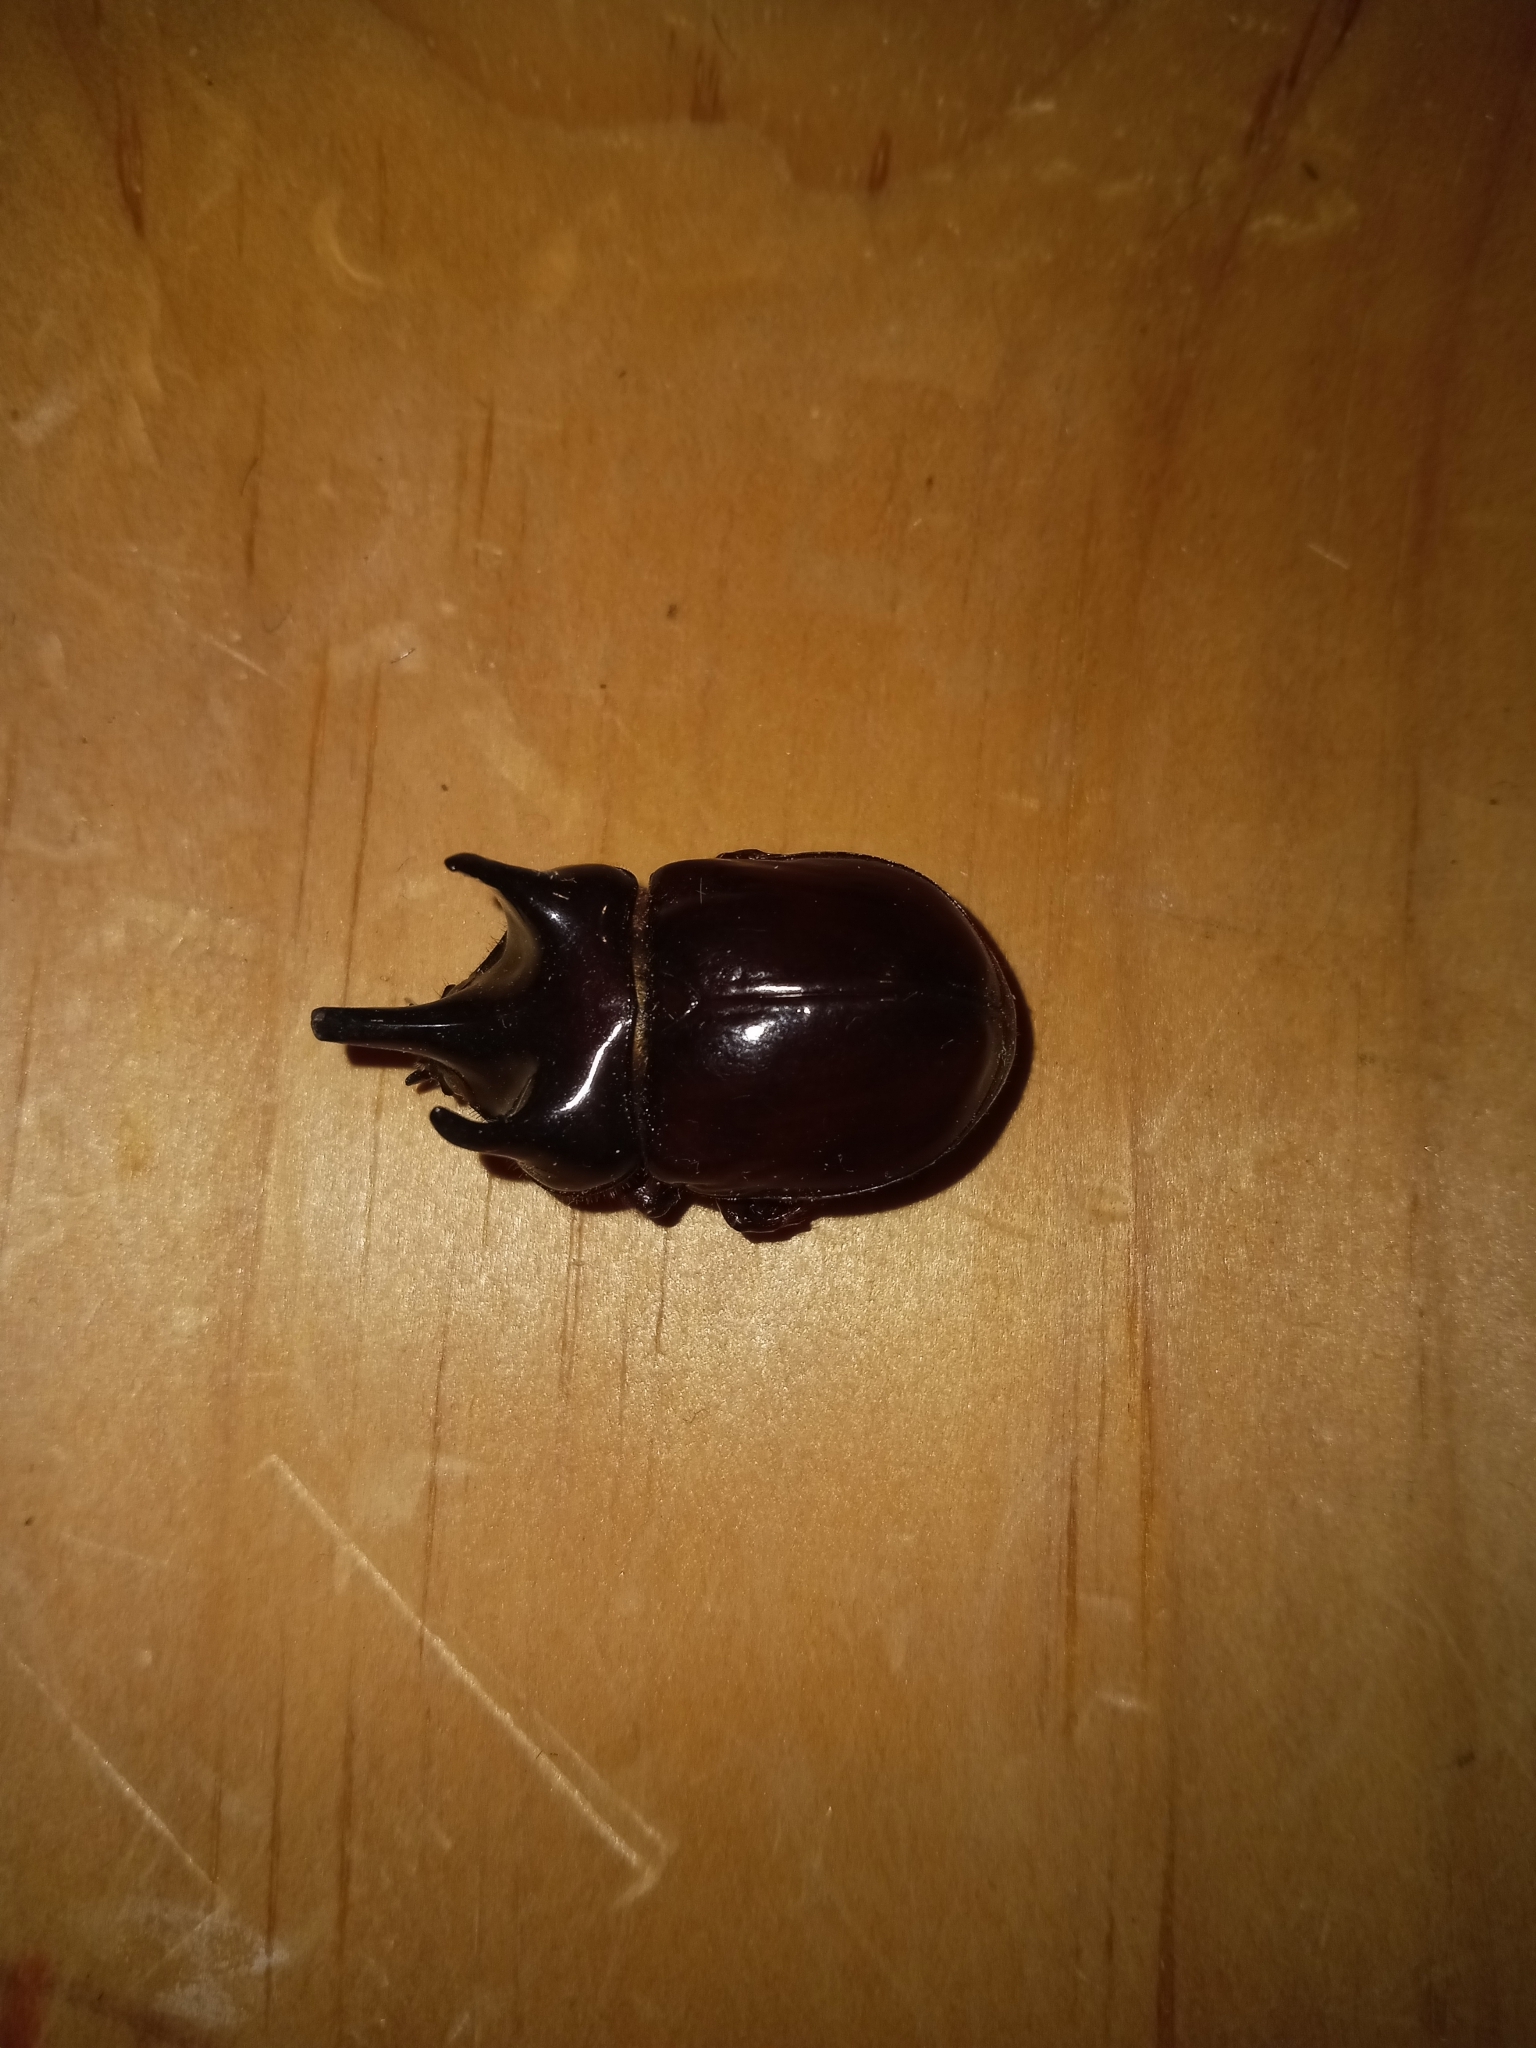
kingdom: Animalia
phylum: Arthropoda
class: Insecta
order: Coleoptera
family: Scarabaeidae
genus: Strategus
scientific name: Strategus antaeus
